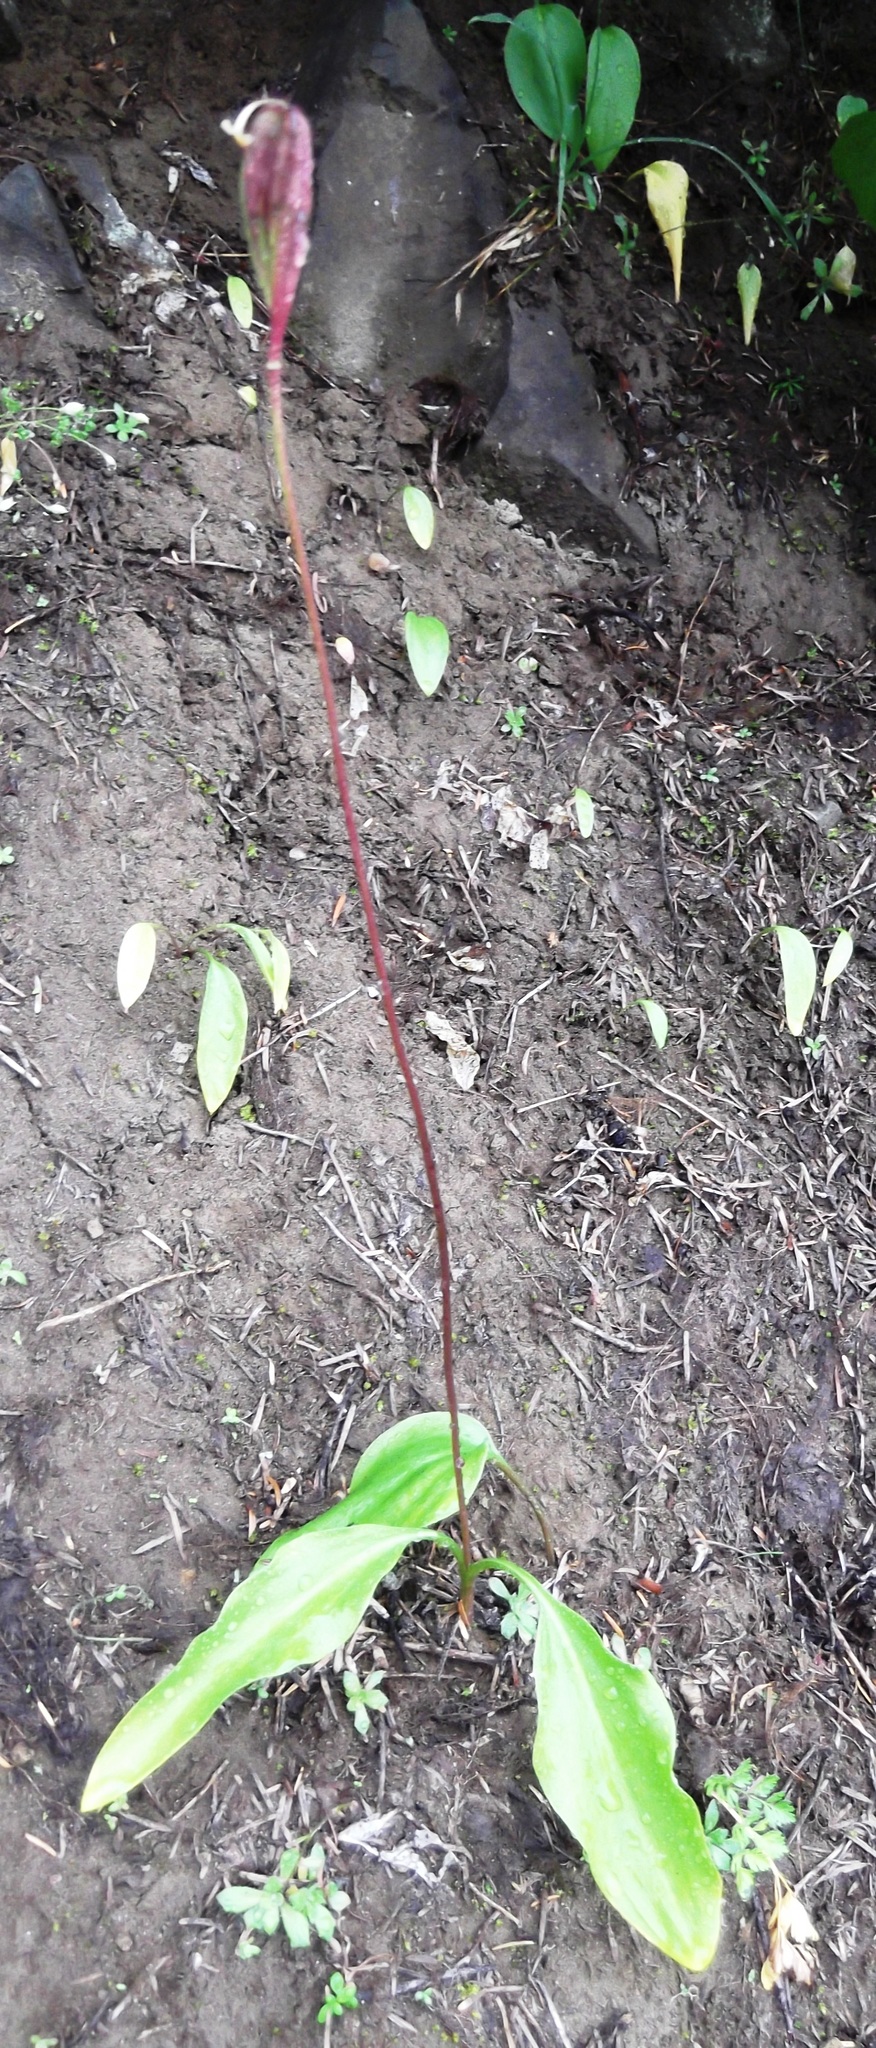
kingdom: Plantae
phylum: Tracheophyta
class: Liliopsida
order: Liliales
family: Liliaceae
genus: Erythronium
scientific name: Erythronium montanum
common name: Avalanche lily
